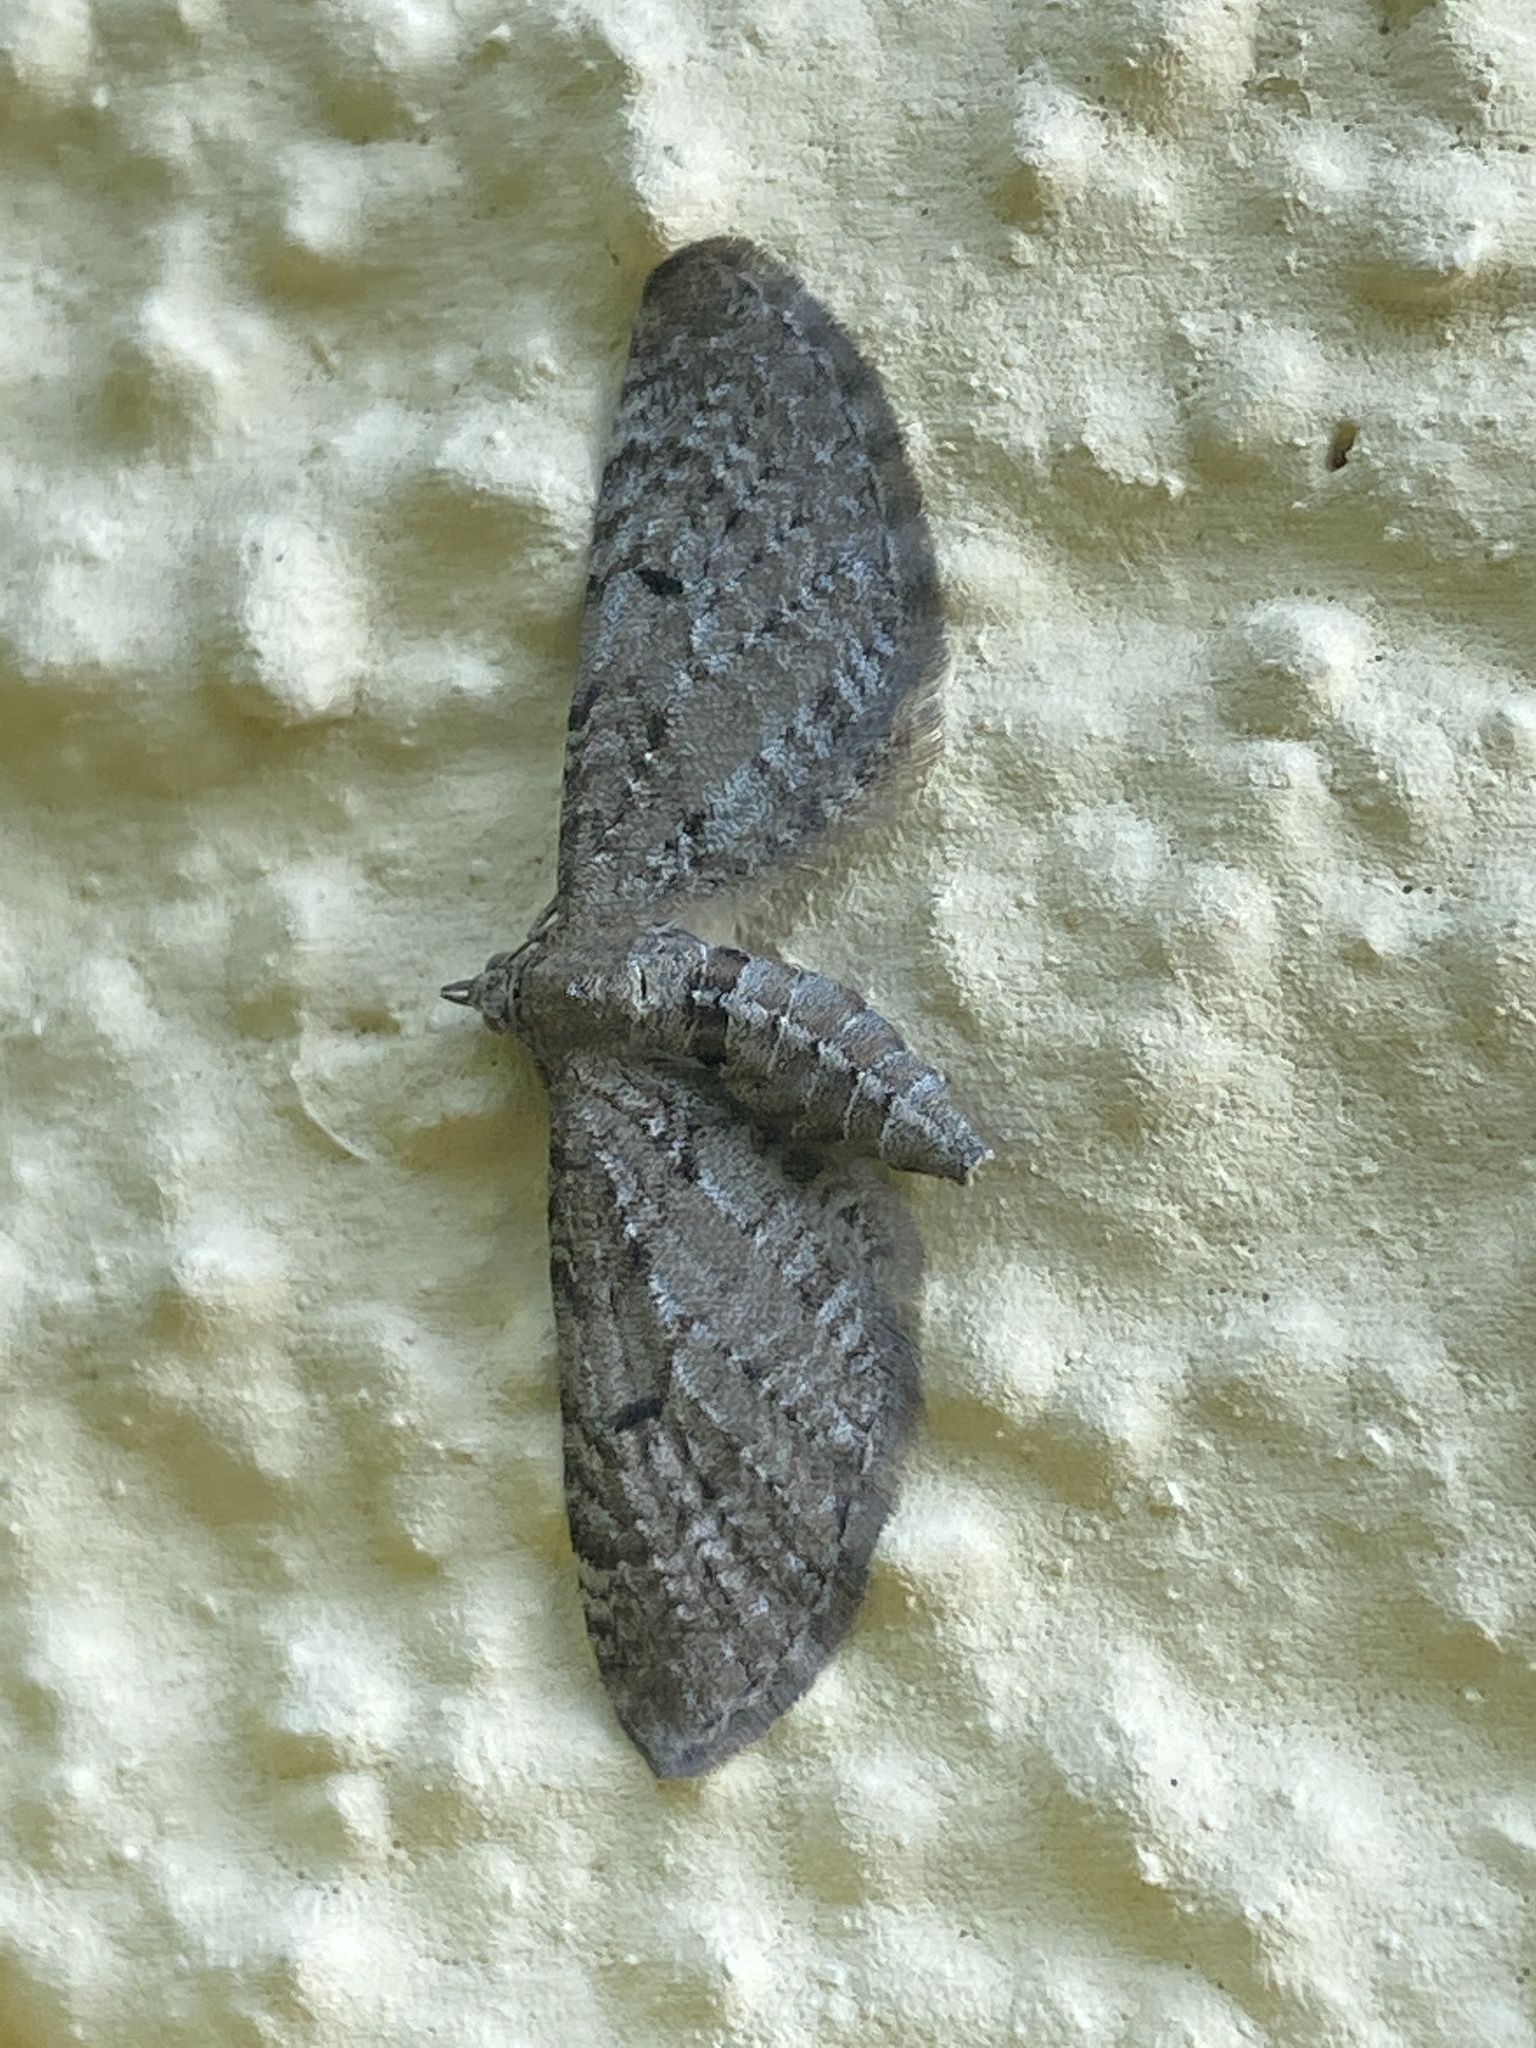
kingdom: Animalia
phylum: Arthropoda
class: Insecta
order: Lepidoptera
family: Geometridae
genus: Eupithecia
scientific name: Eupithecia intricata
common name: Freyers pug
